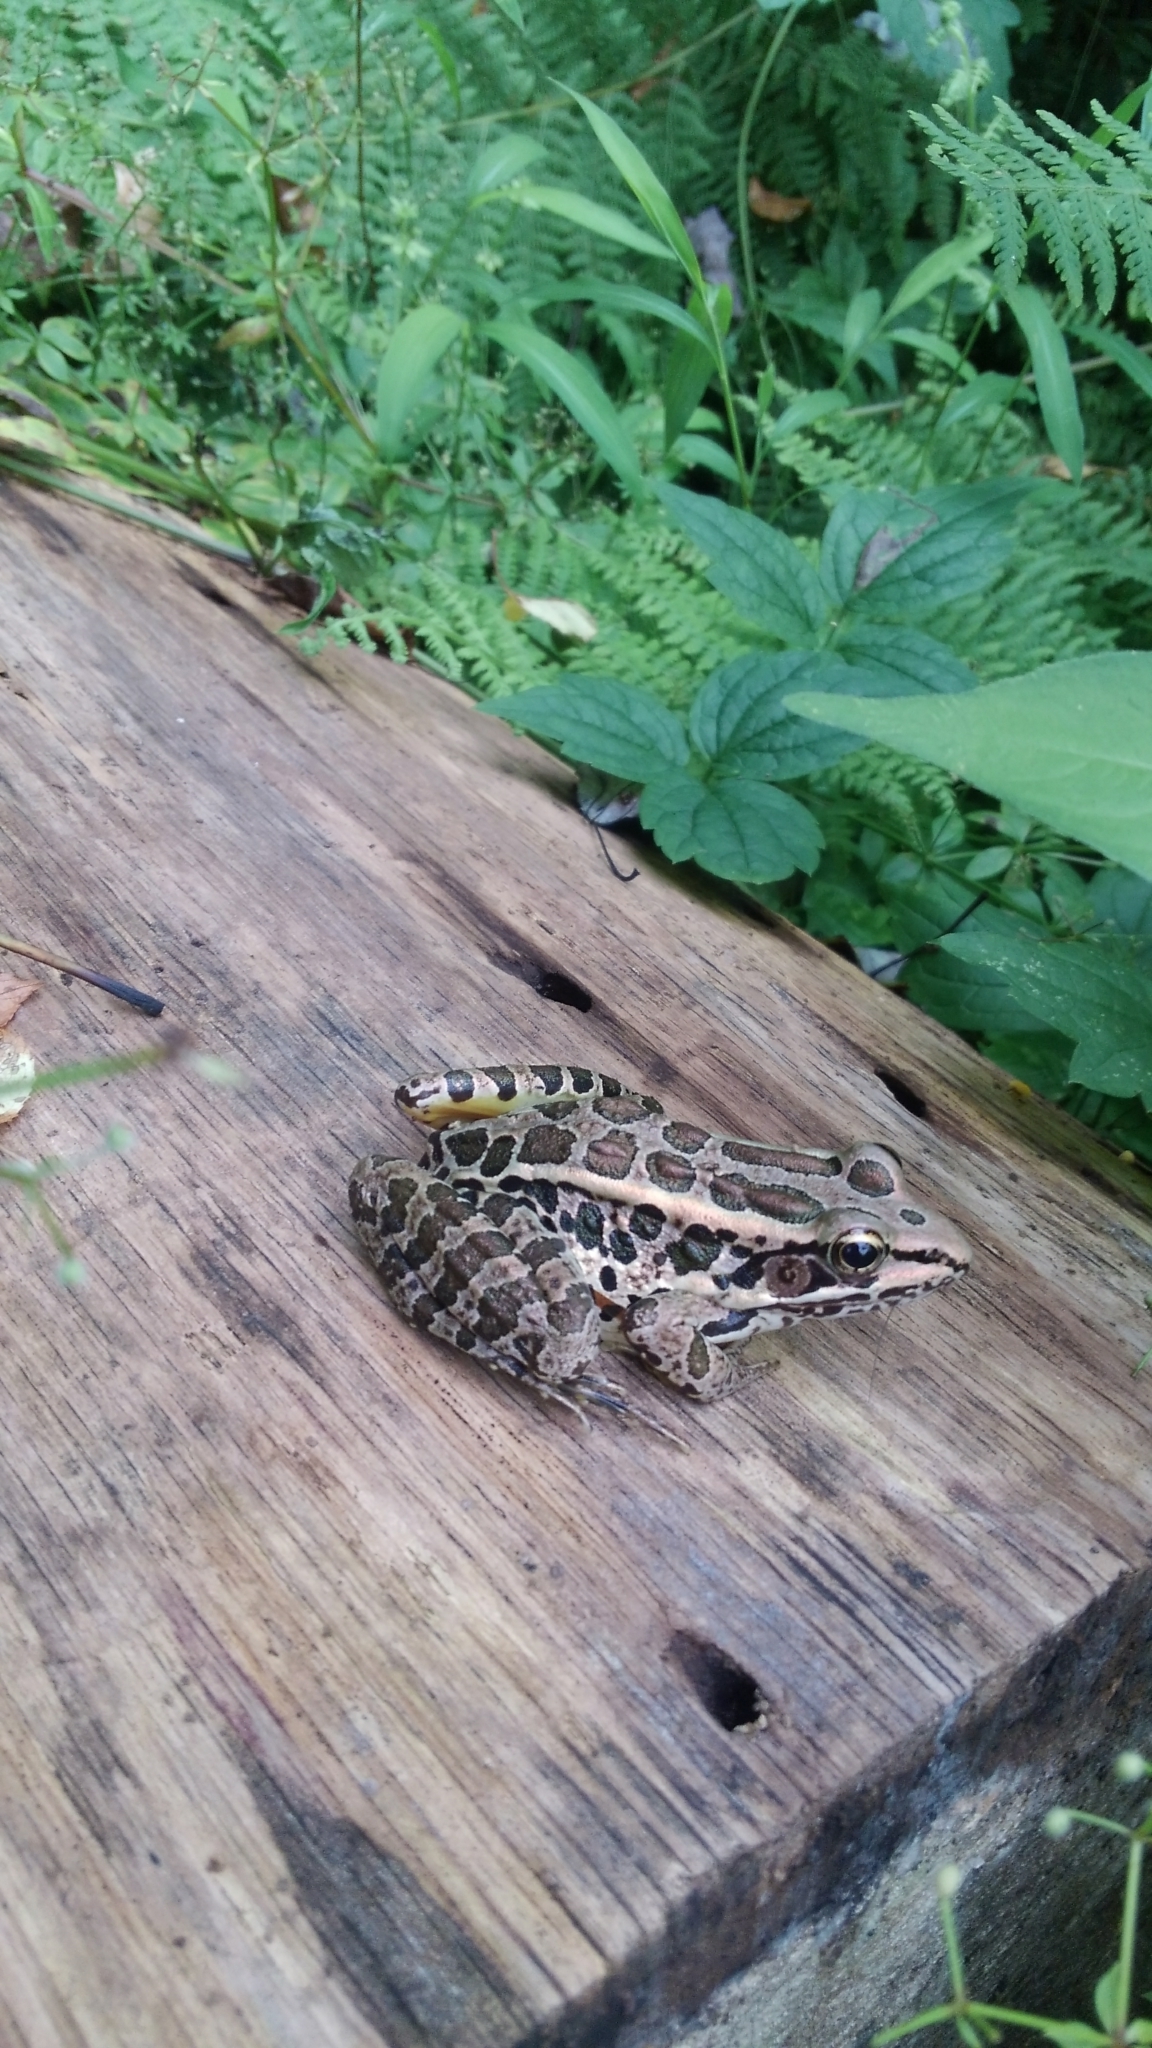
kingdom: Animalia
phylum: Chordata
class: Amphibia
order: Anura
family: Ranidae
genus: Lithobates
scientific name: Lithobates palustris
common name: Pickerel frog
